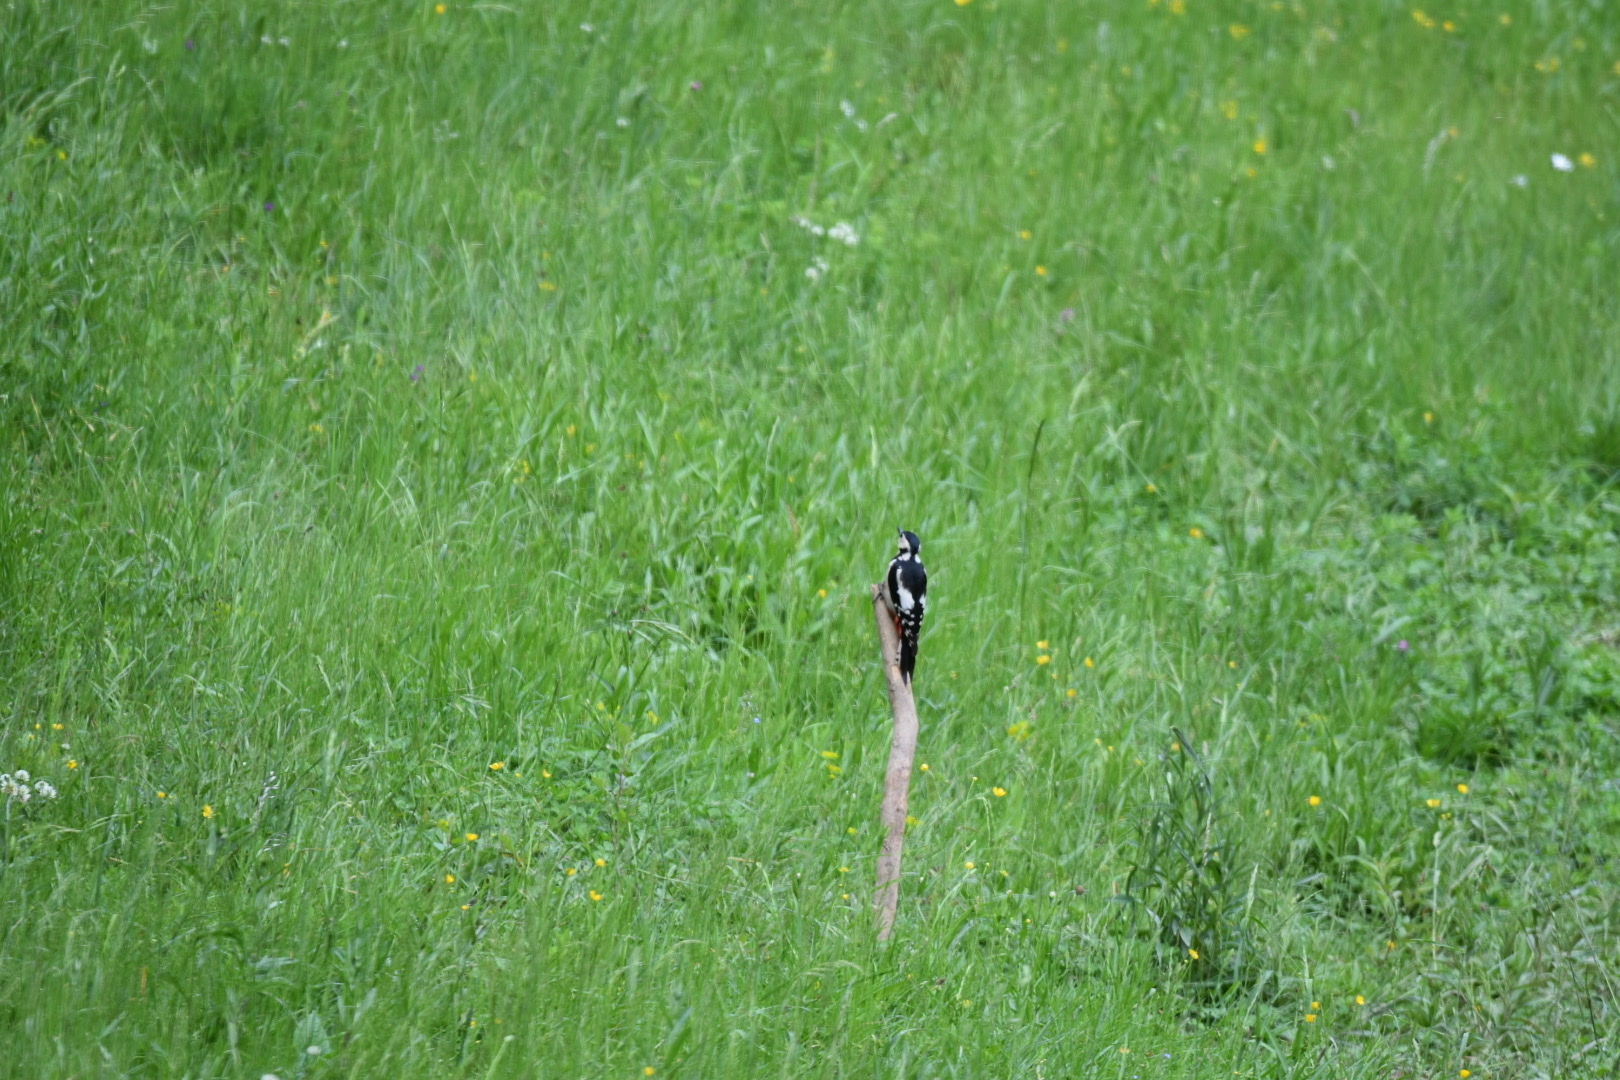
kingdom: Animalia
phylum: Chordata
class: Aves
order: Piciformes
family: Picidae
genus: Dendrocopos
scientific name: Dendrocopos major
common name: Great spotted woodpecker
